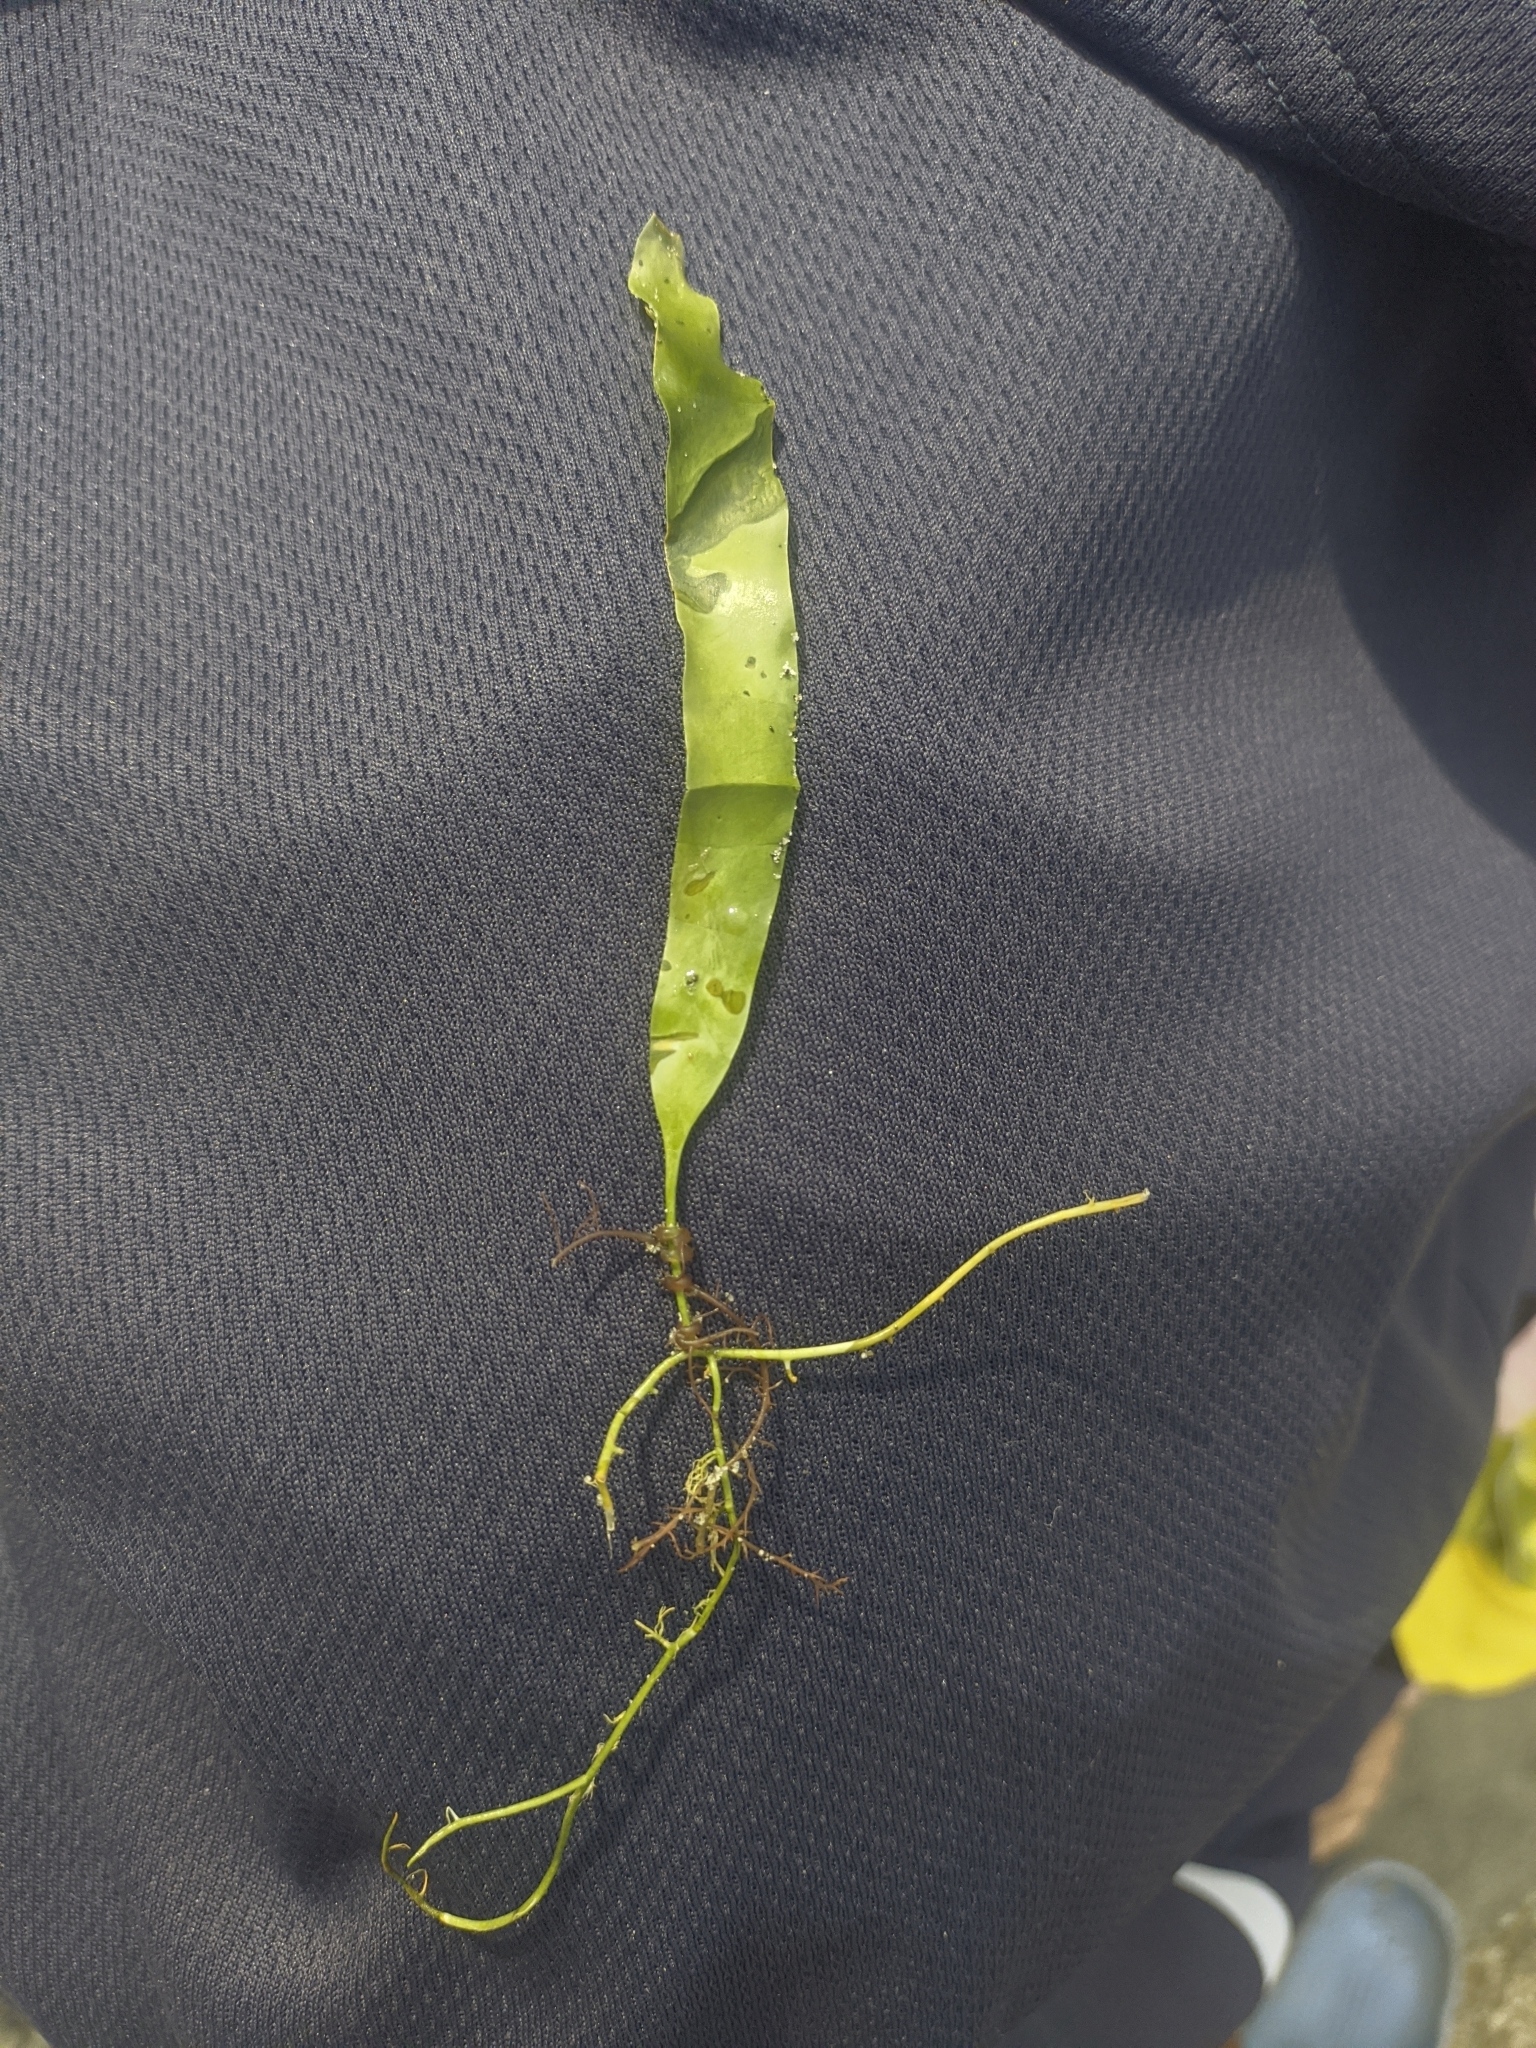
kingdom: Plantae
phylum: Chlorophyta
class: Ulvophyceae
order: Bryopsidales
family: Caulerpaceae
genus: Caulerpa
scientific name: Caulerpa prolifera
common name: Oval-blade algae
